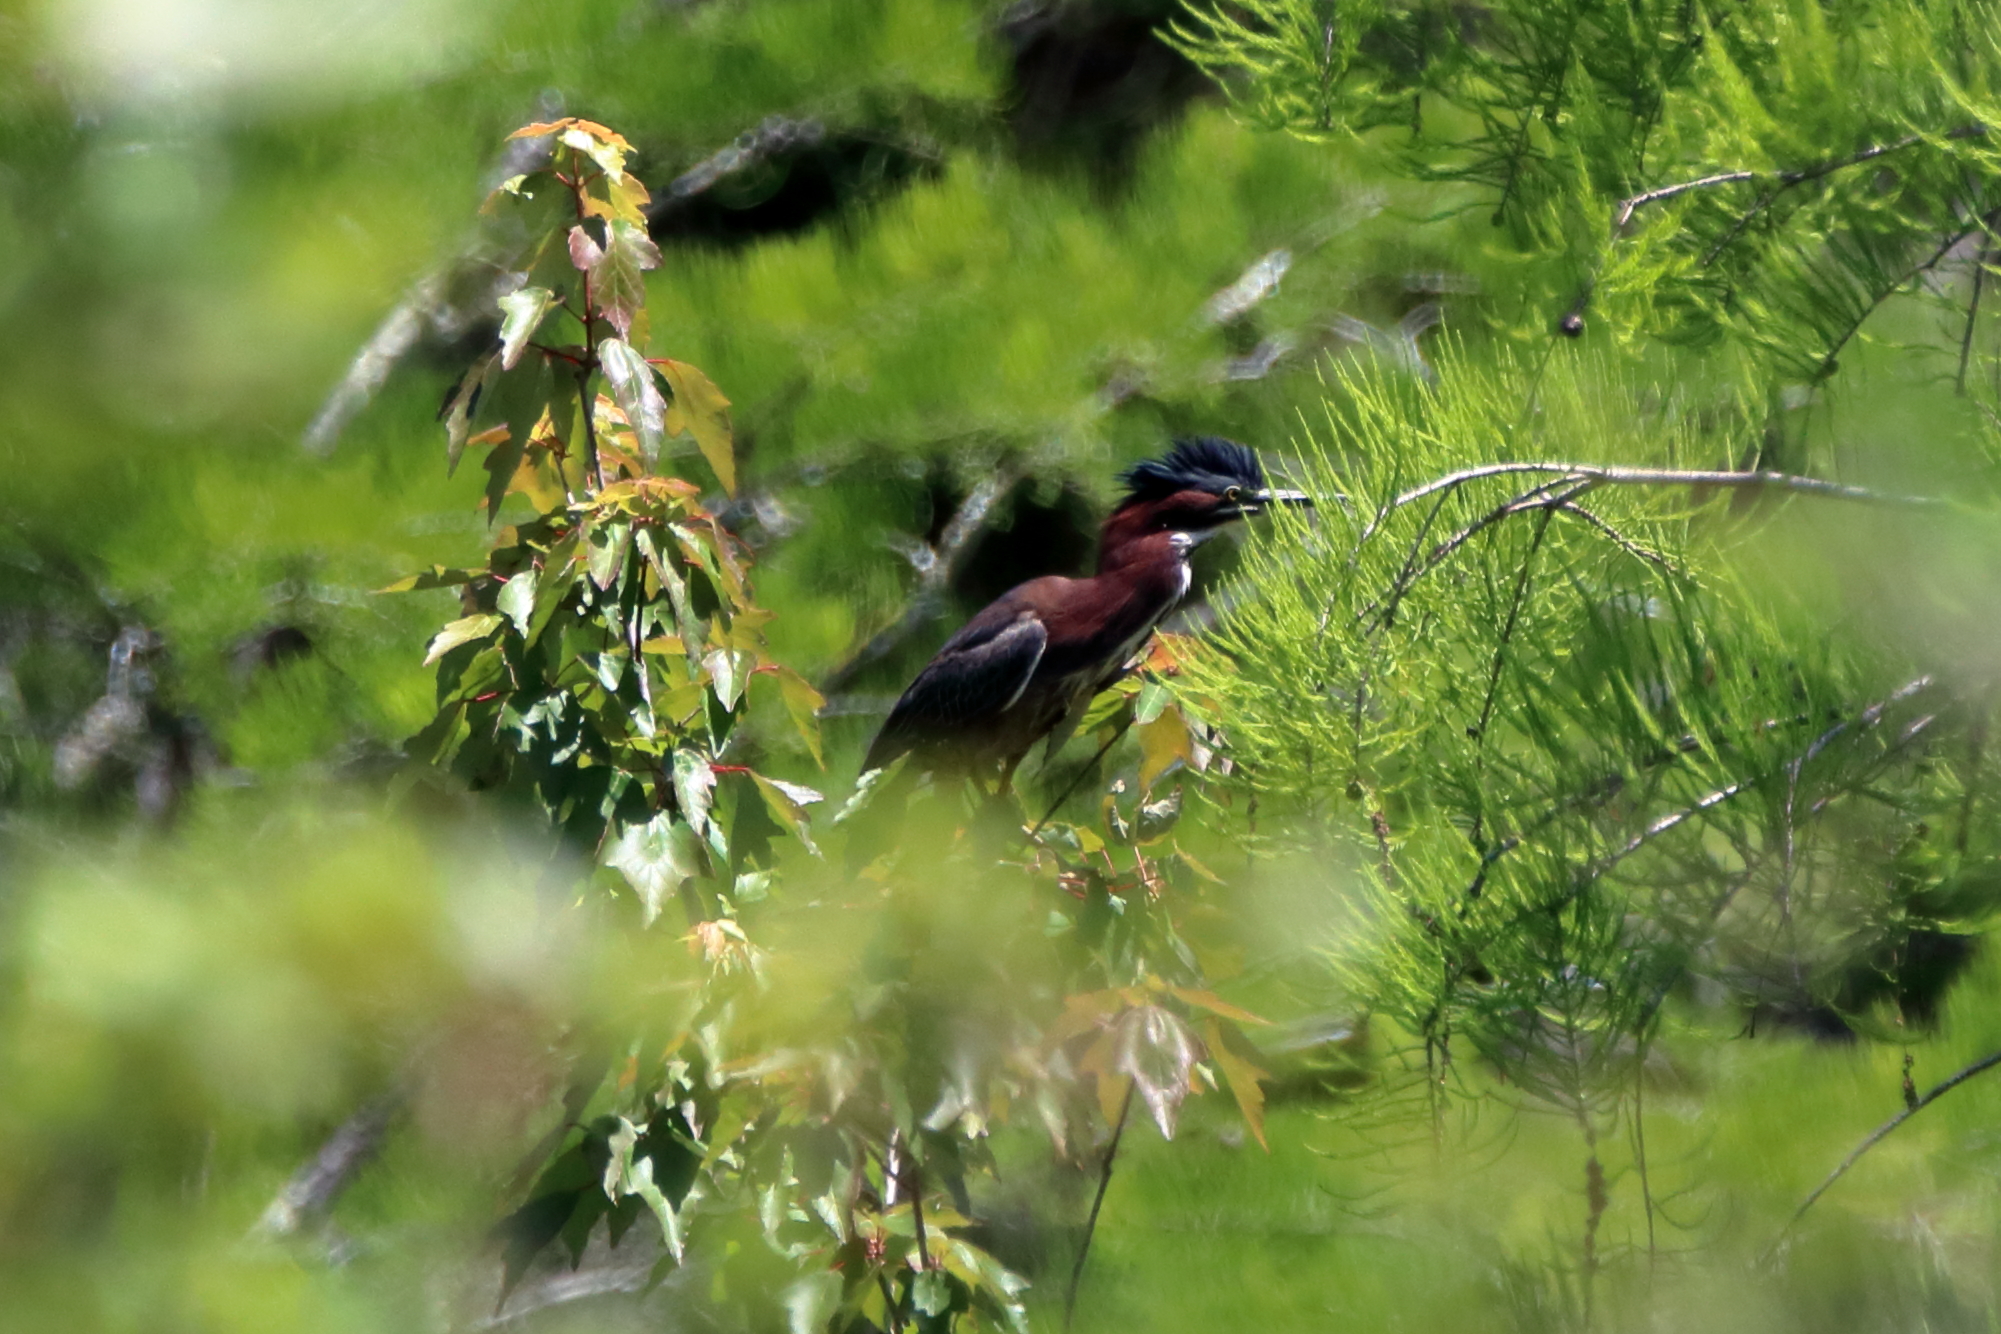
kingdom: Animalia
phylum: Chordata
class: Aves
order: Pelecaniformes
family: Ardeidae
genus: Butorides
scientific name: Butorides virescens
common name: Green heron
